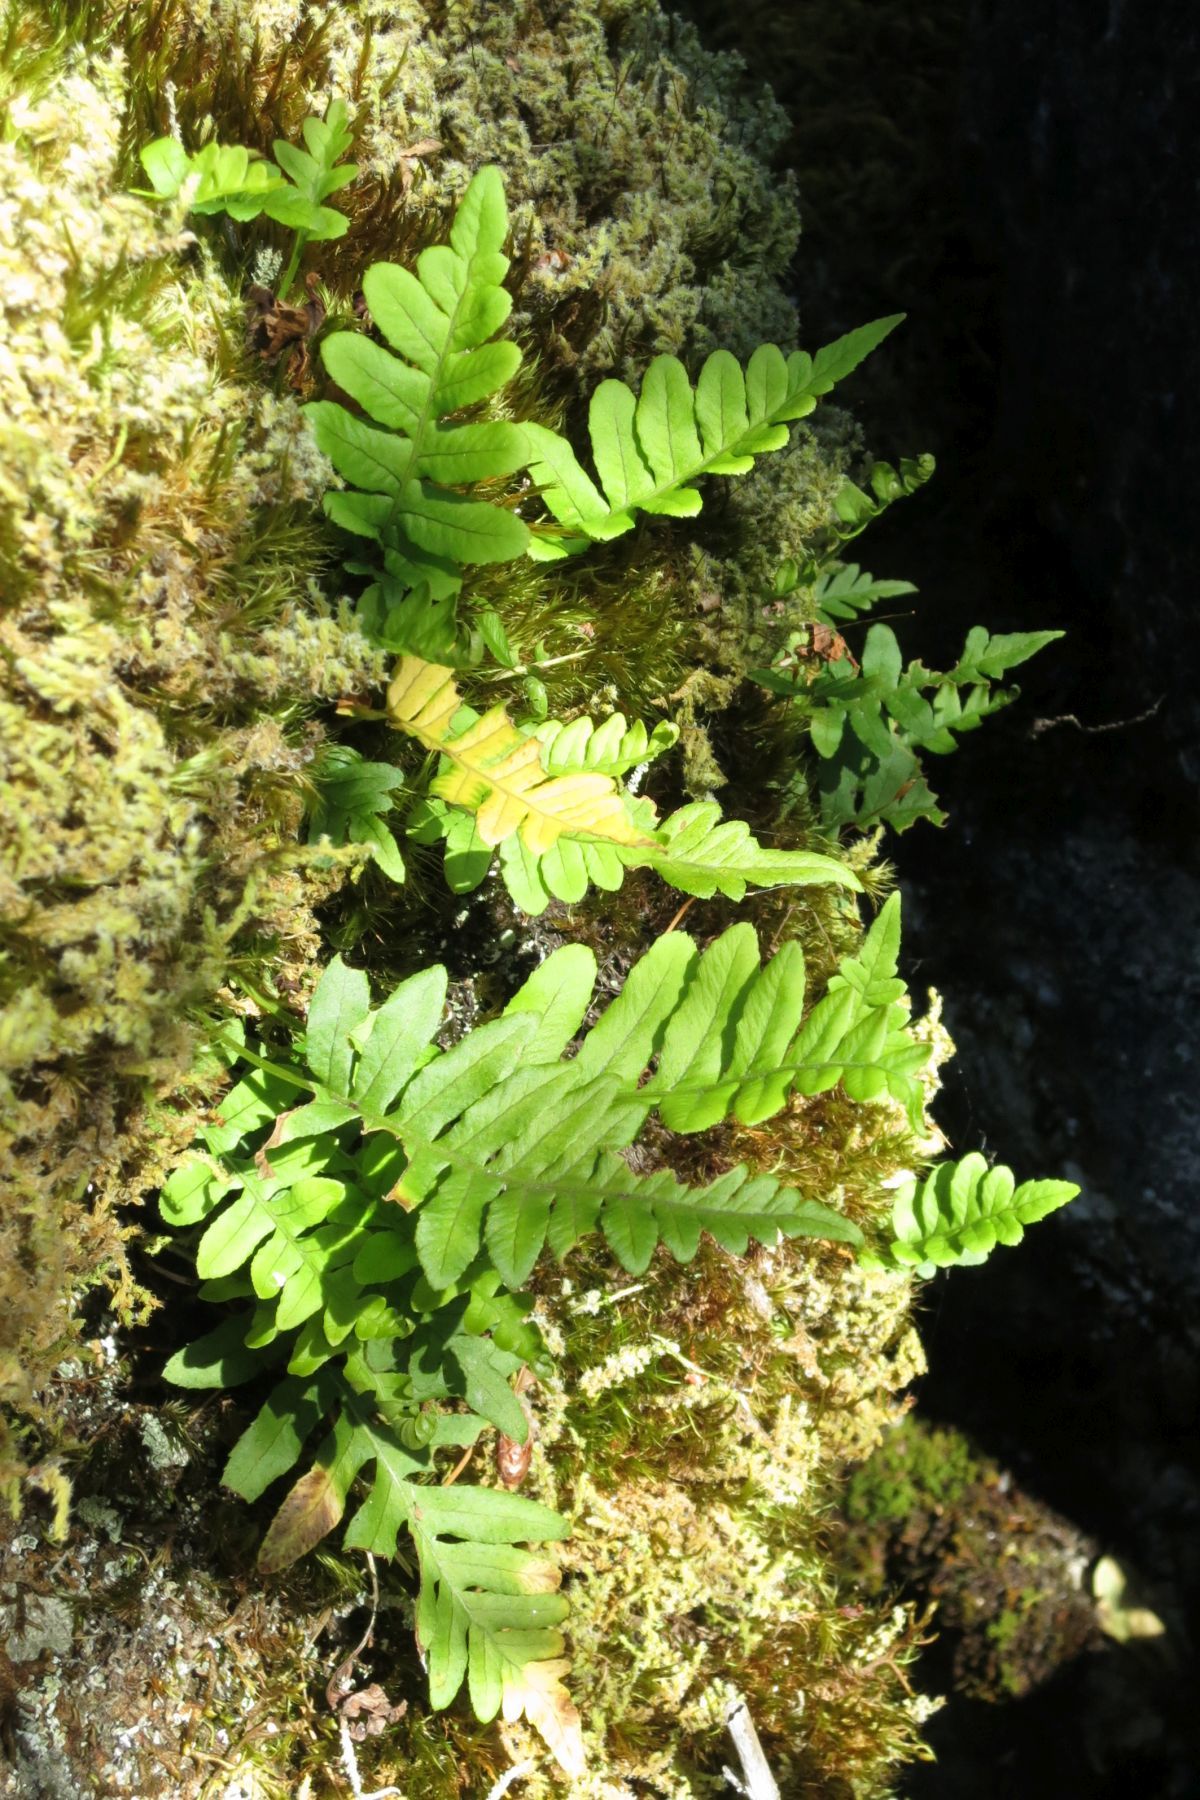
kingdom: Plantae
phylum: Tracheophyta
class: Polypodiopsida
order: Polypodiales
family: Polypodiaceae
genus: Polypodium
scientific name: Polypodium glycyrrhiza
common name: Licorice fern
